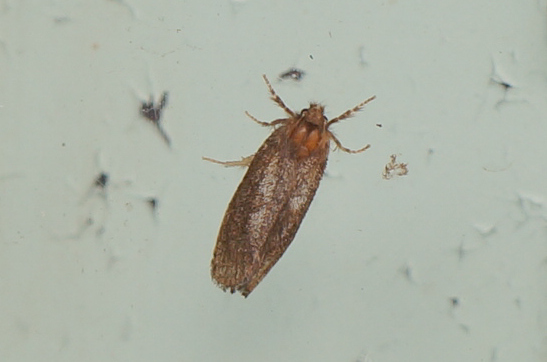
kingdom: Animalia
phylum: Arthropoda
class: Insecta
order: Lepidoptera
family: Tineidae
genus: Acrolophus
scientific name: Acrolophus mora
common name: Dark acrolophus
